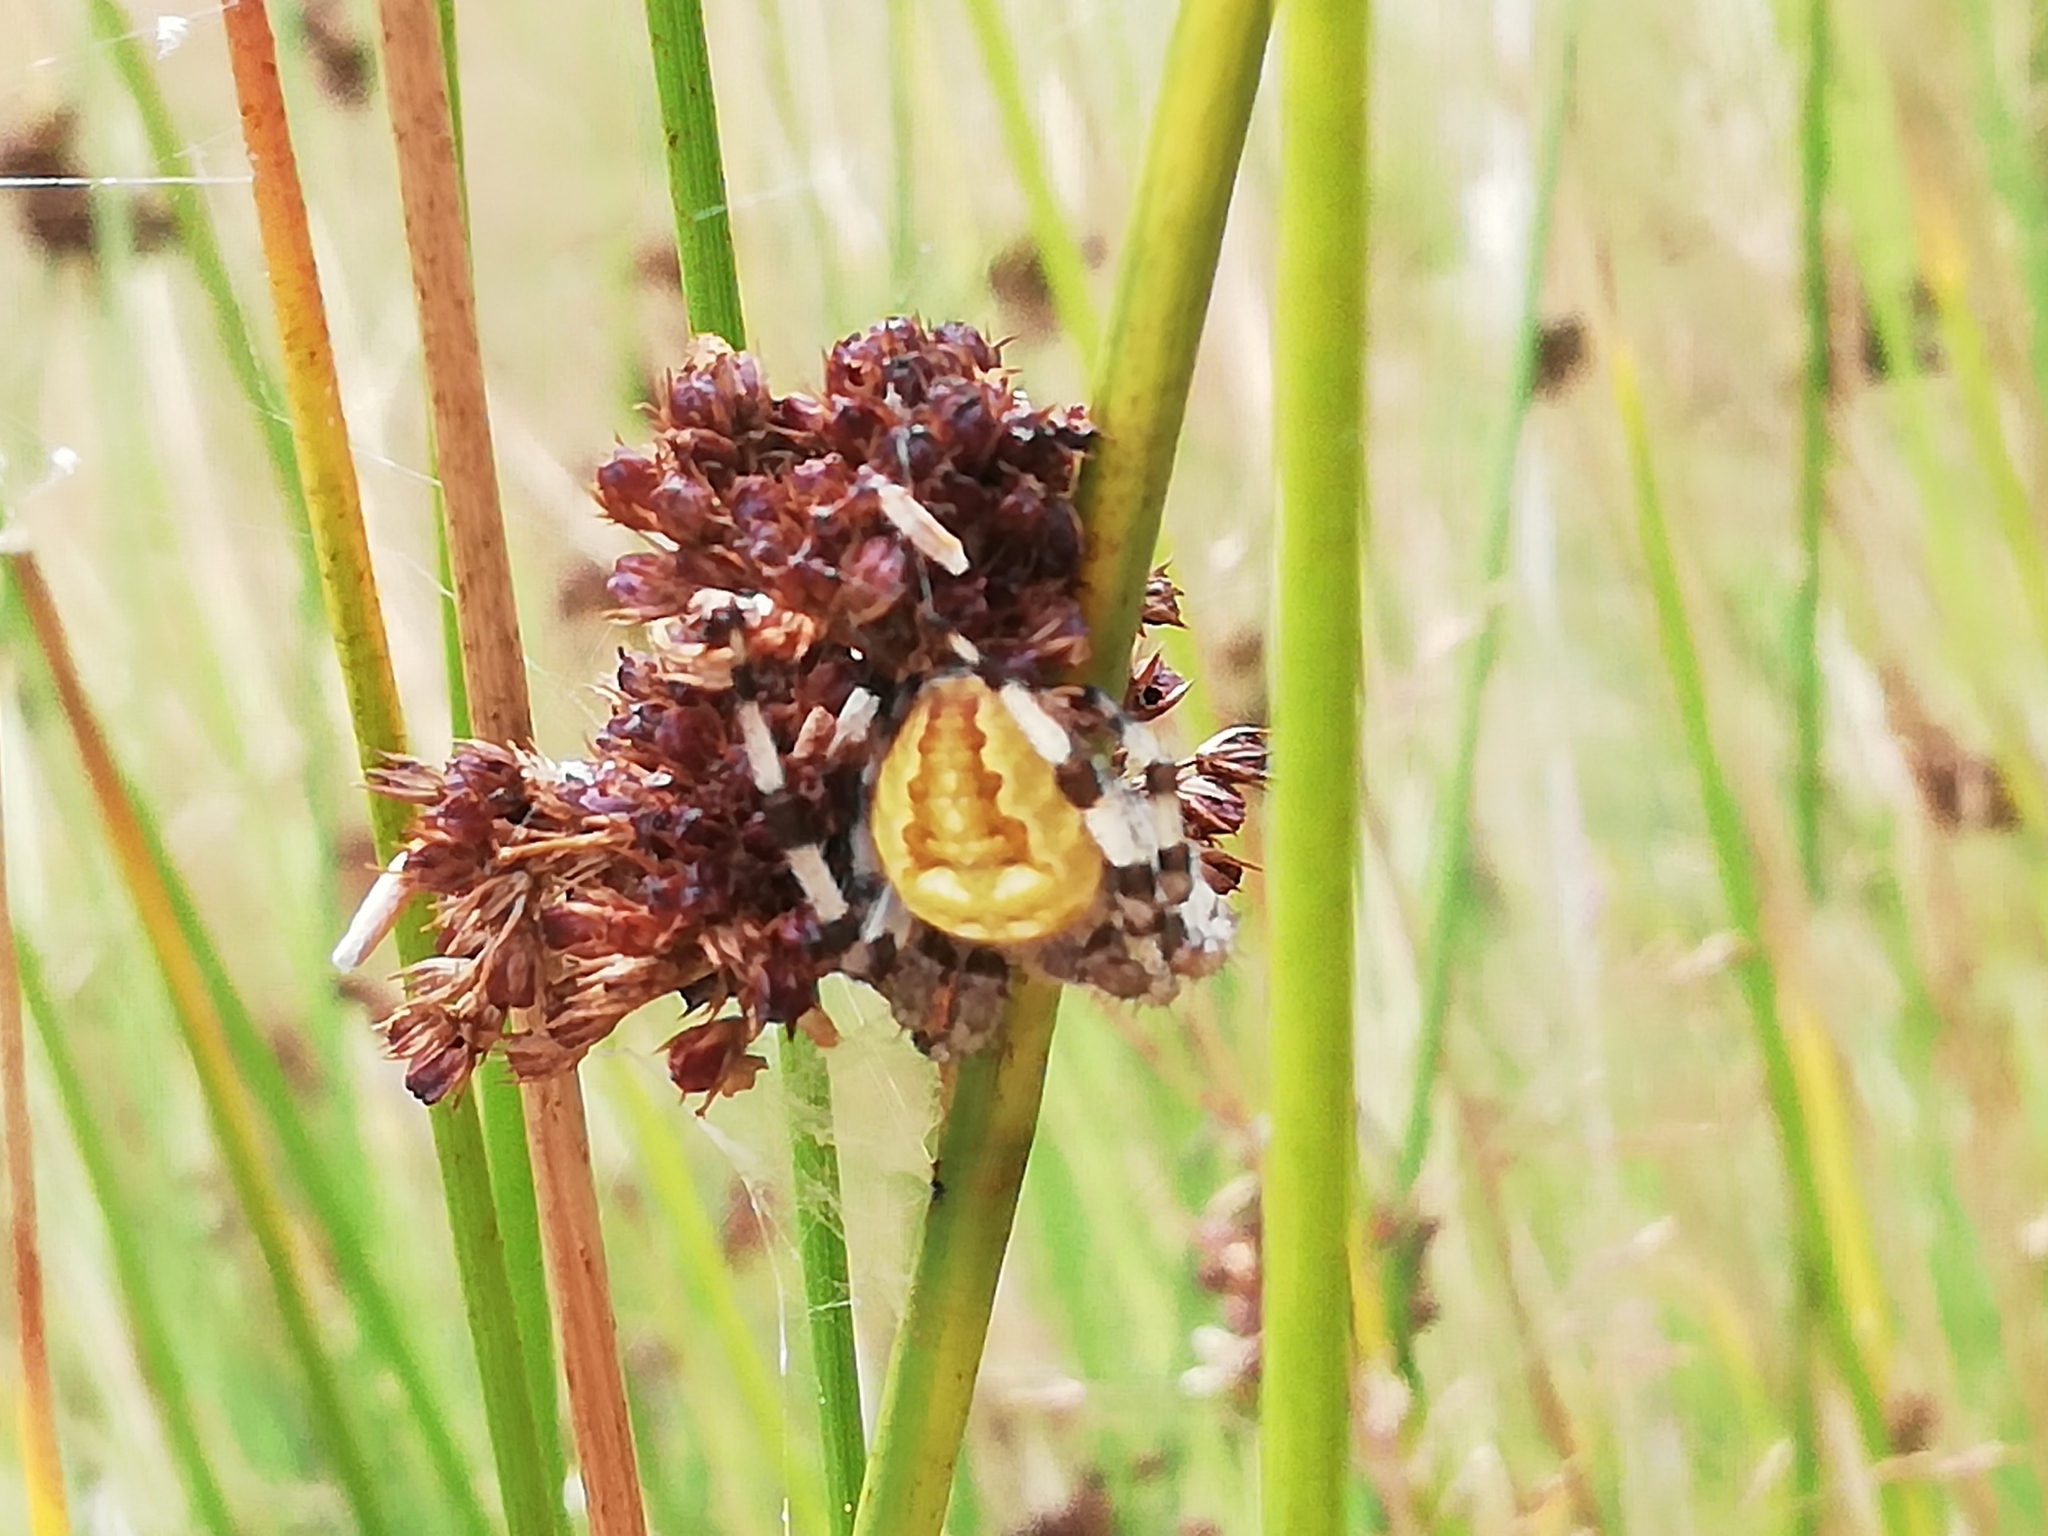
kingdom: Animalia
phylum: Arthropoda
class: Arachnida
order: Araneae
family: Araneidae
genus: Araneus
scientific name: Araneus quadratus
